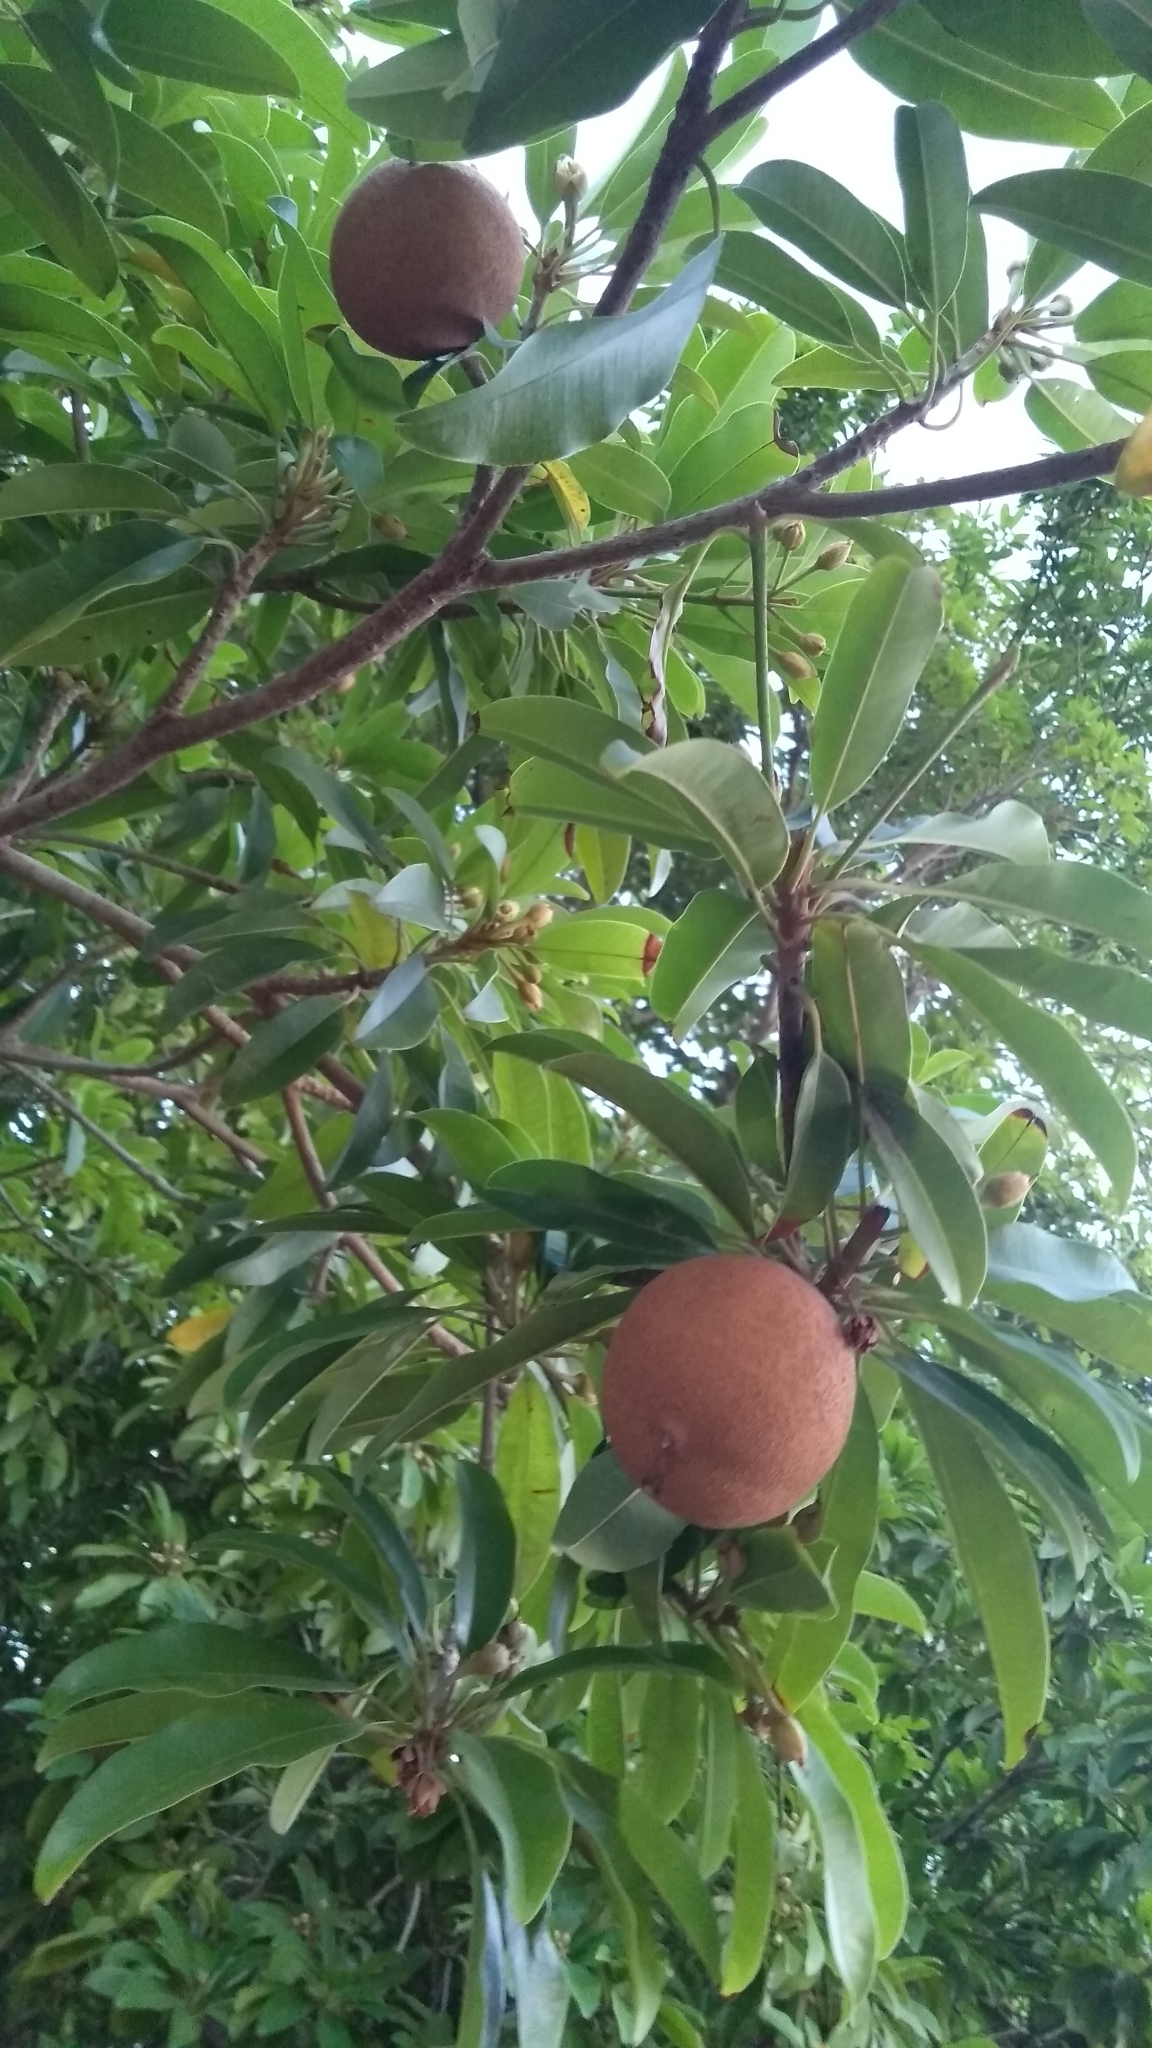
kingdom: Plantae
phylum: Tracheophyta
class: Magnoliopsida
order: Ericales
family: Sapotaceae
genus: Manilkara
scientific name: Manilkara zapota
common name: Sapodilla
